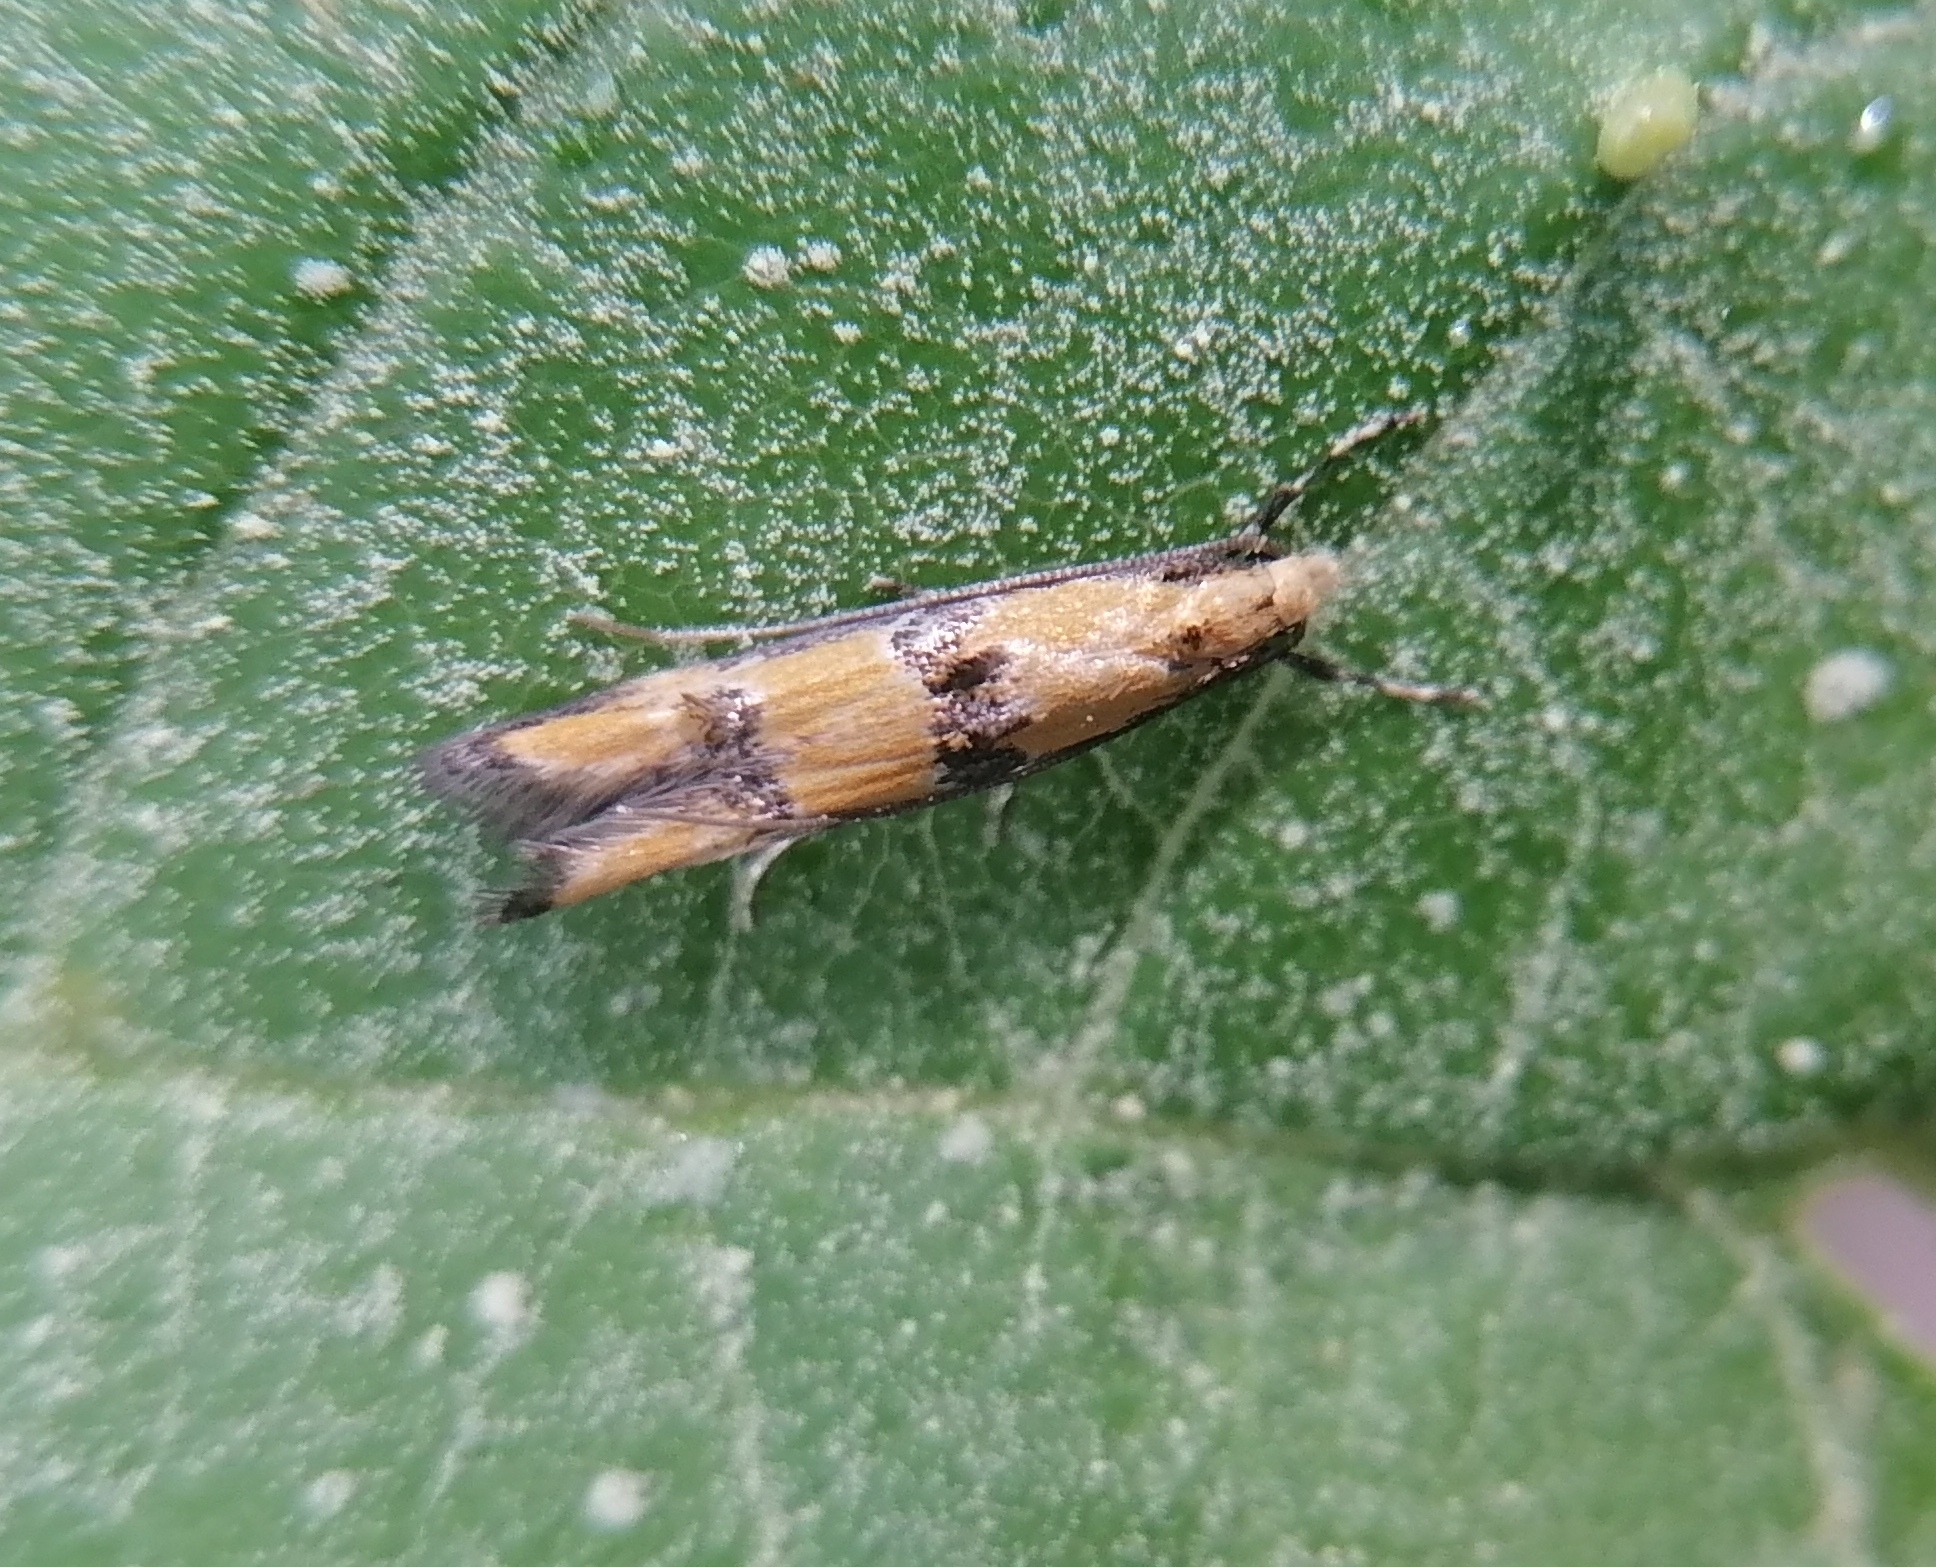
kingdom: Animalia
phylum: Arthropoda
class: Insecta
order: Lepidoptera
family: Elachistidae
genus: Heinemannia
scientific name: Heinemannia laspeyrella
